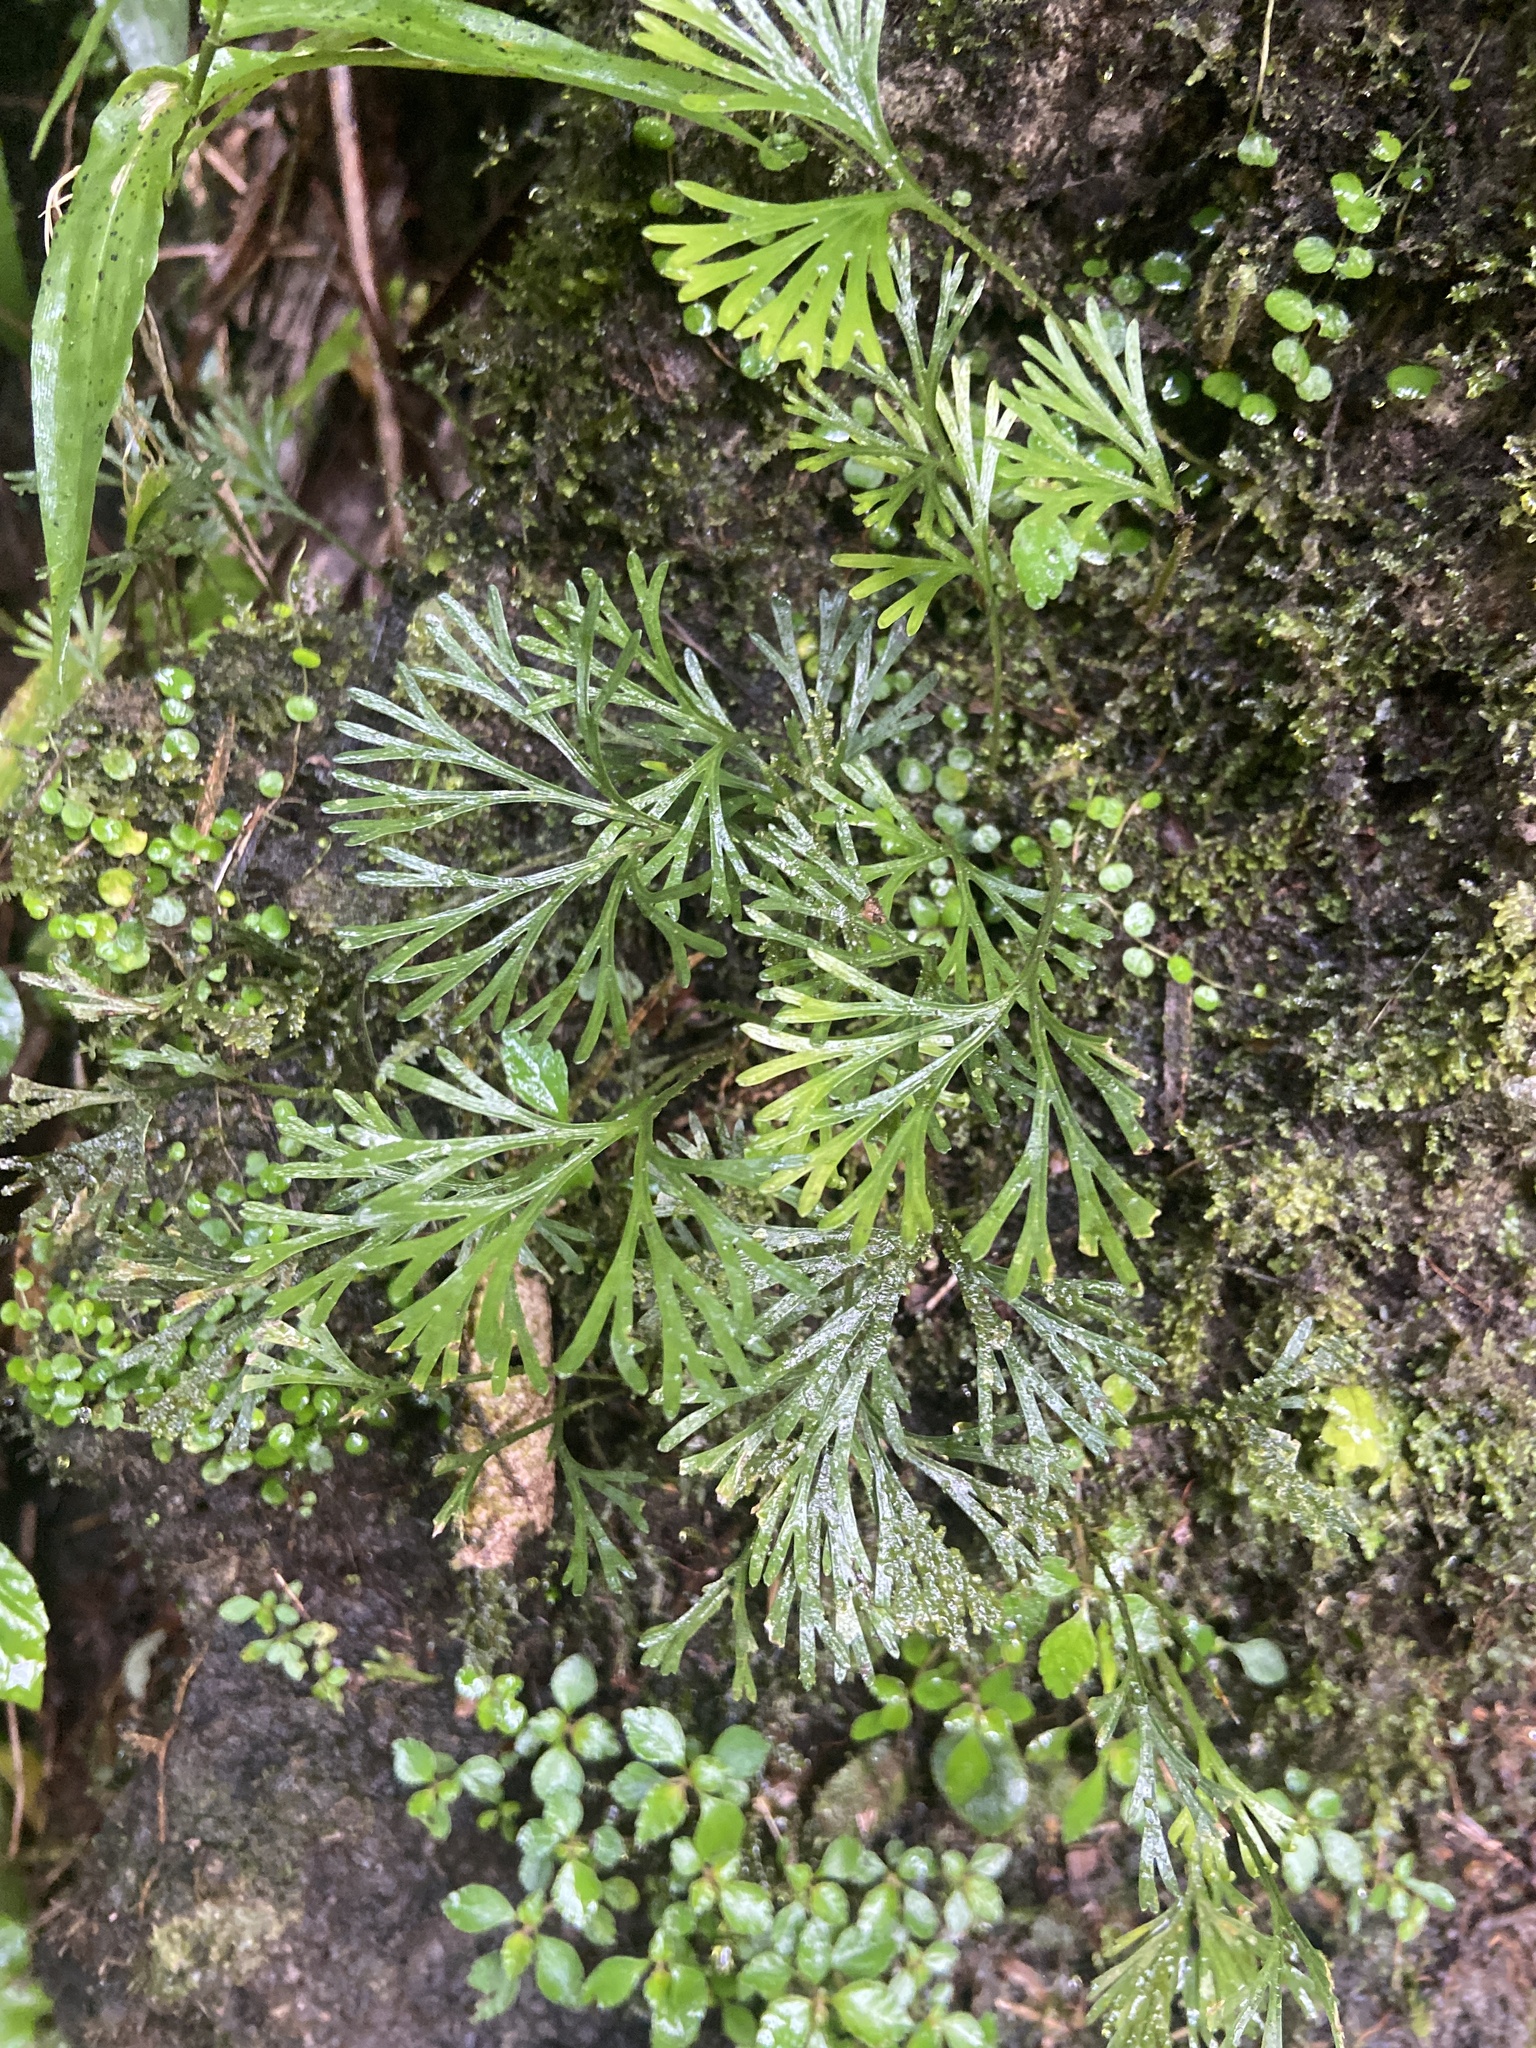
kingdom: Plantae
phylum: Tracheophyta
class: Polypodiopsida
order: Polypodiales
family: Dryopteridaceae
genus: Elaphoglossum
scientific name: Elaphoglossum peltatum
